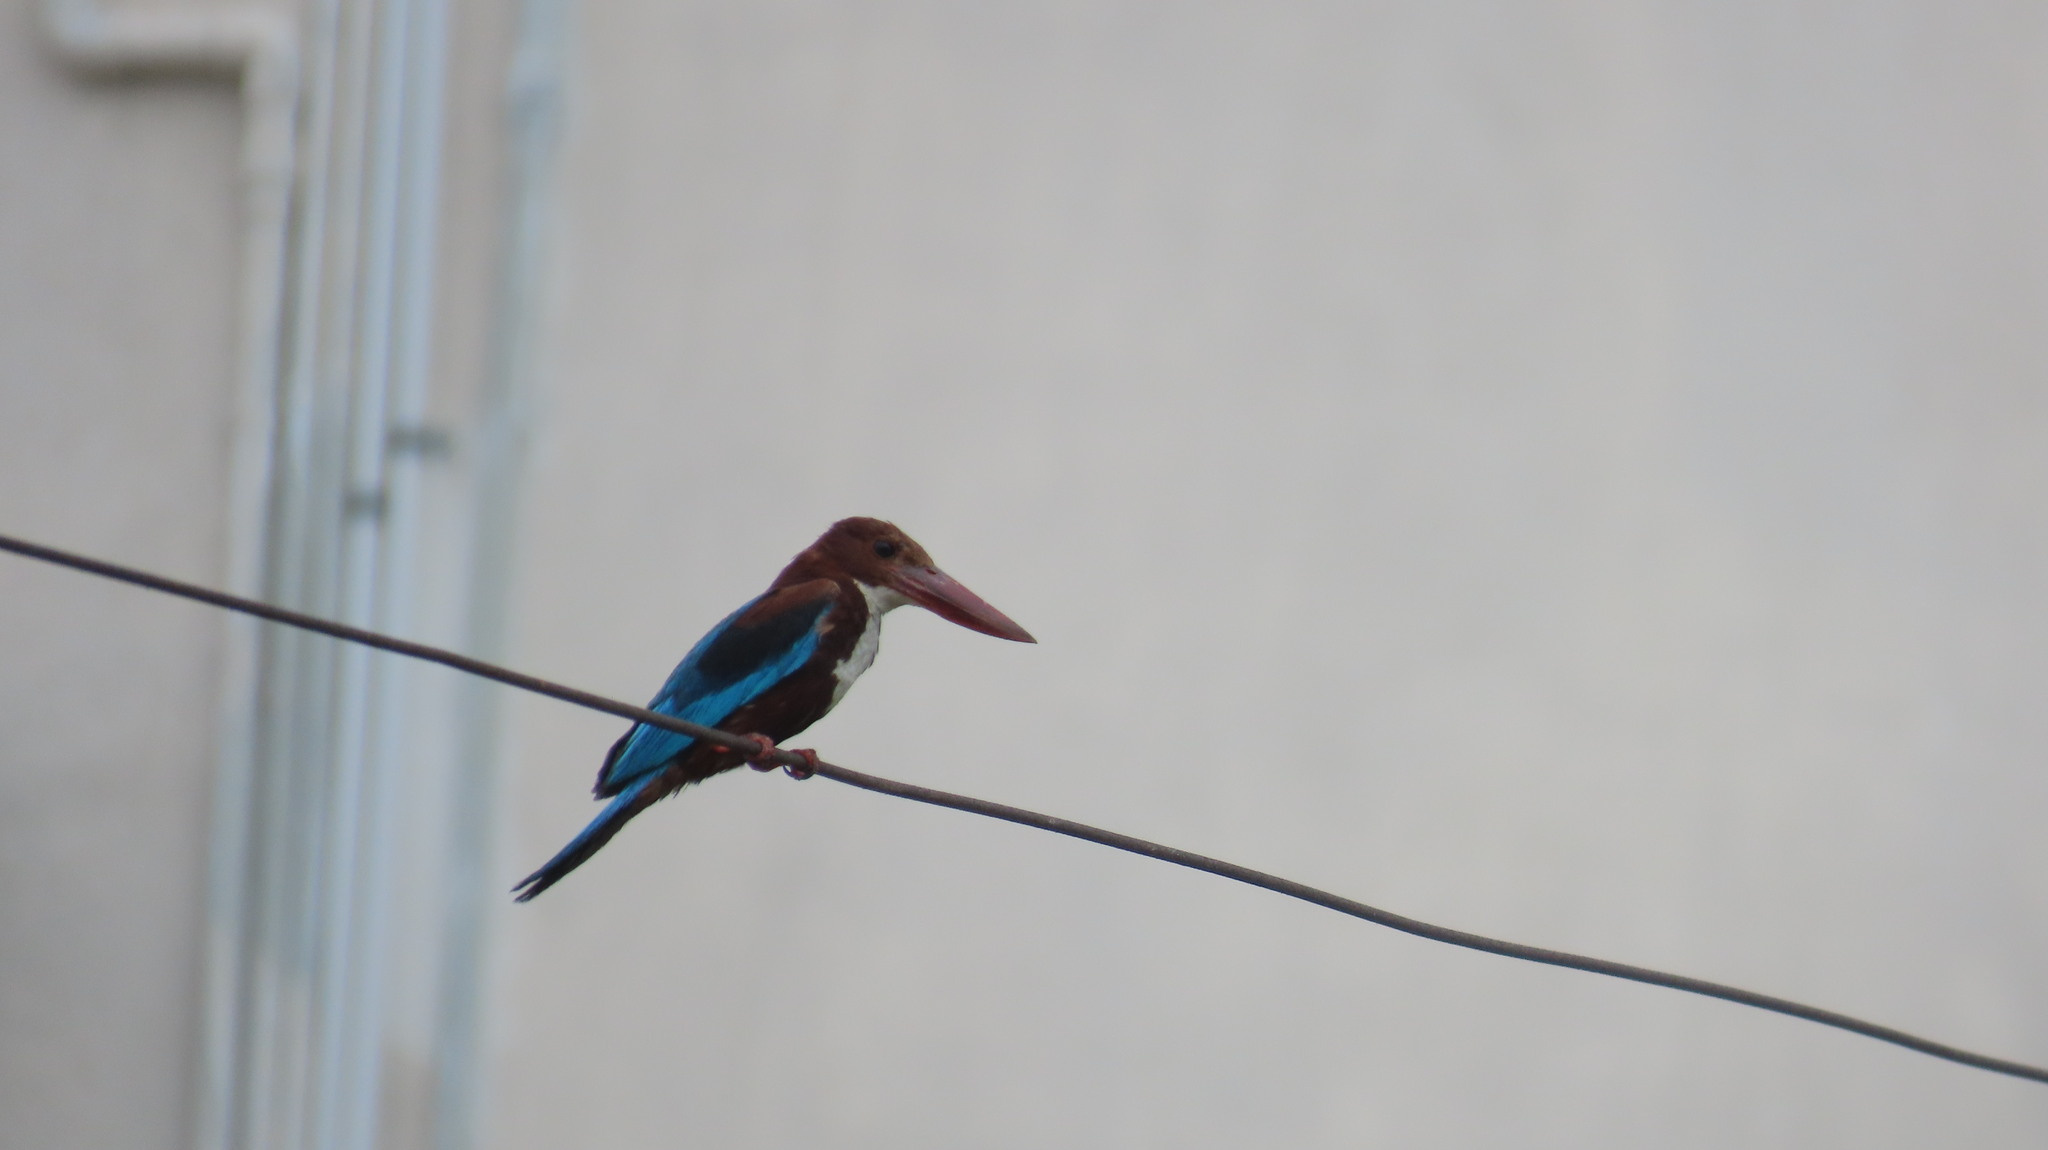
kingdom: Animalia
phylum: Chordata
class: Aves
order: Coraciiformes
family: Alcedinidae
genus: Halcyon
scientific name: Halcyon smyrnensis
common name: White-throated kingfisher
